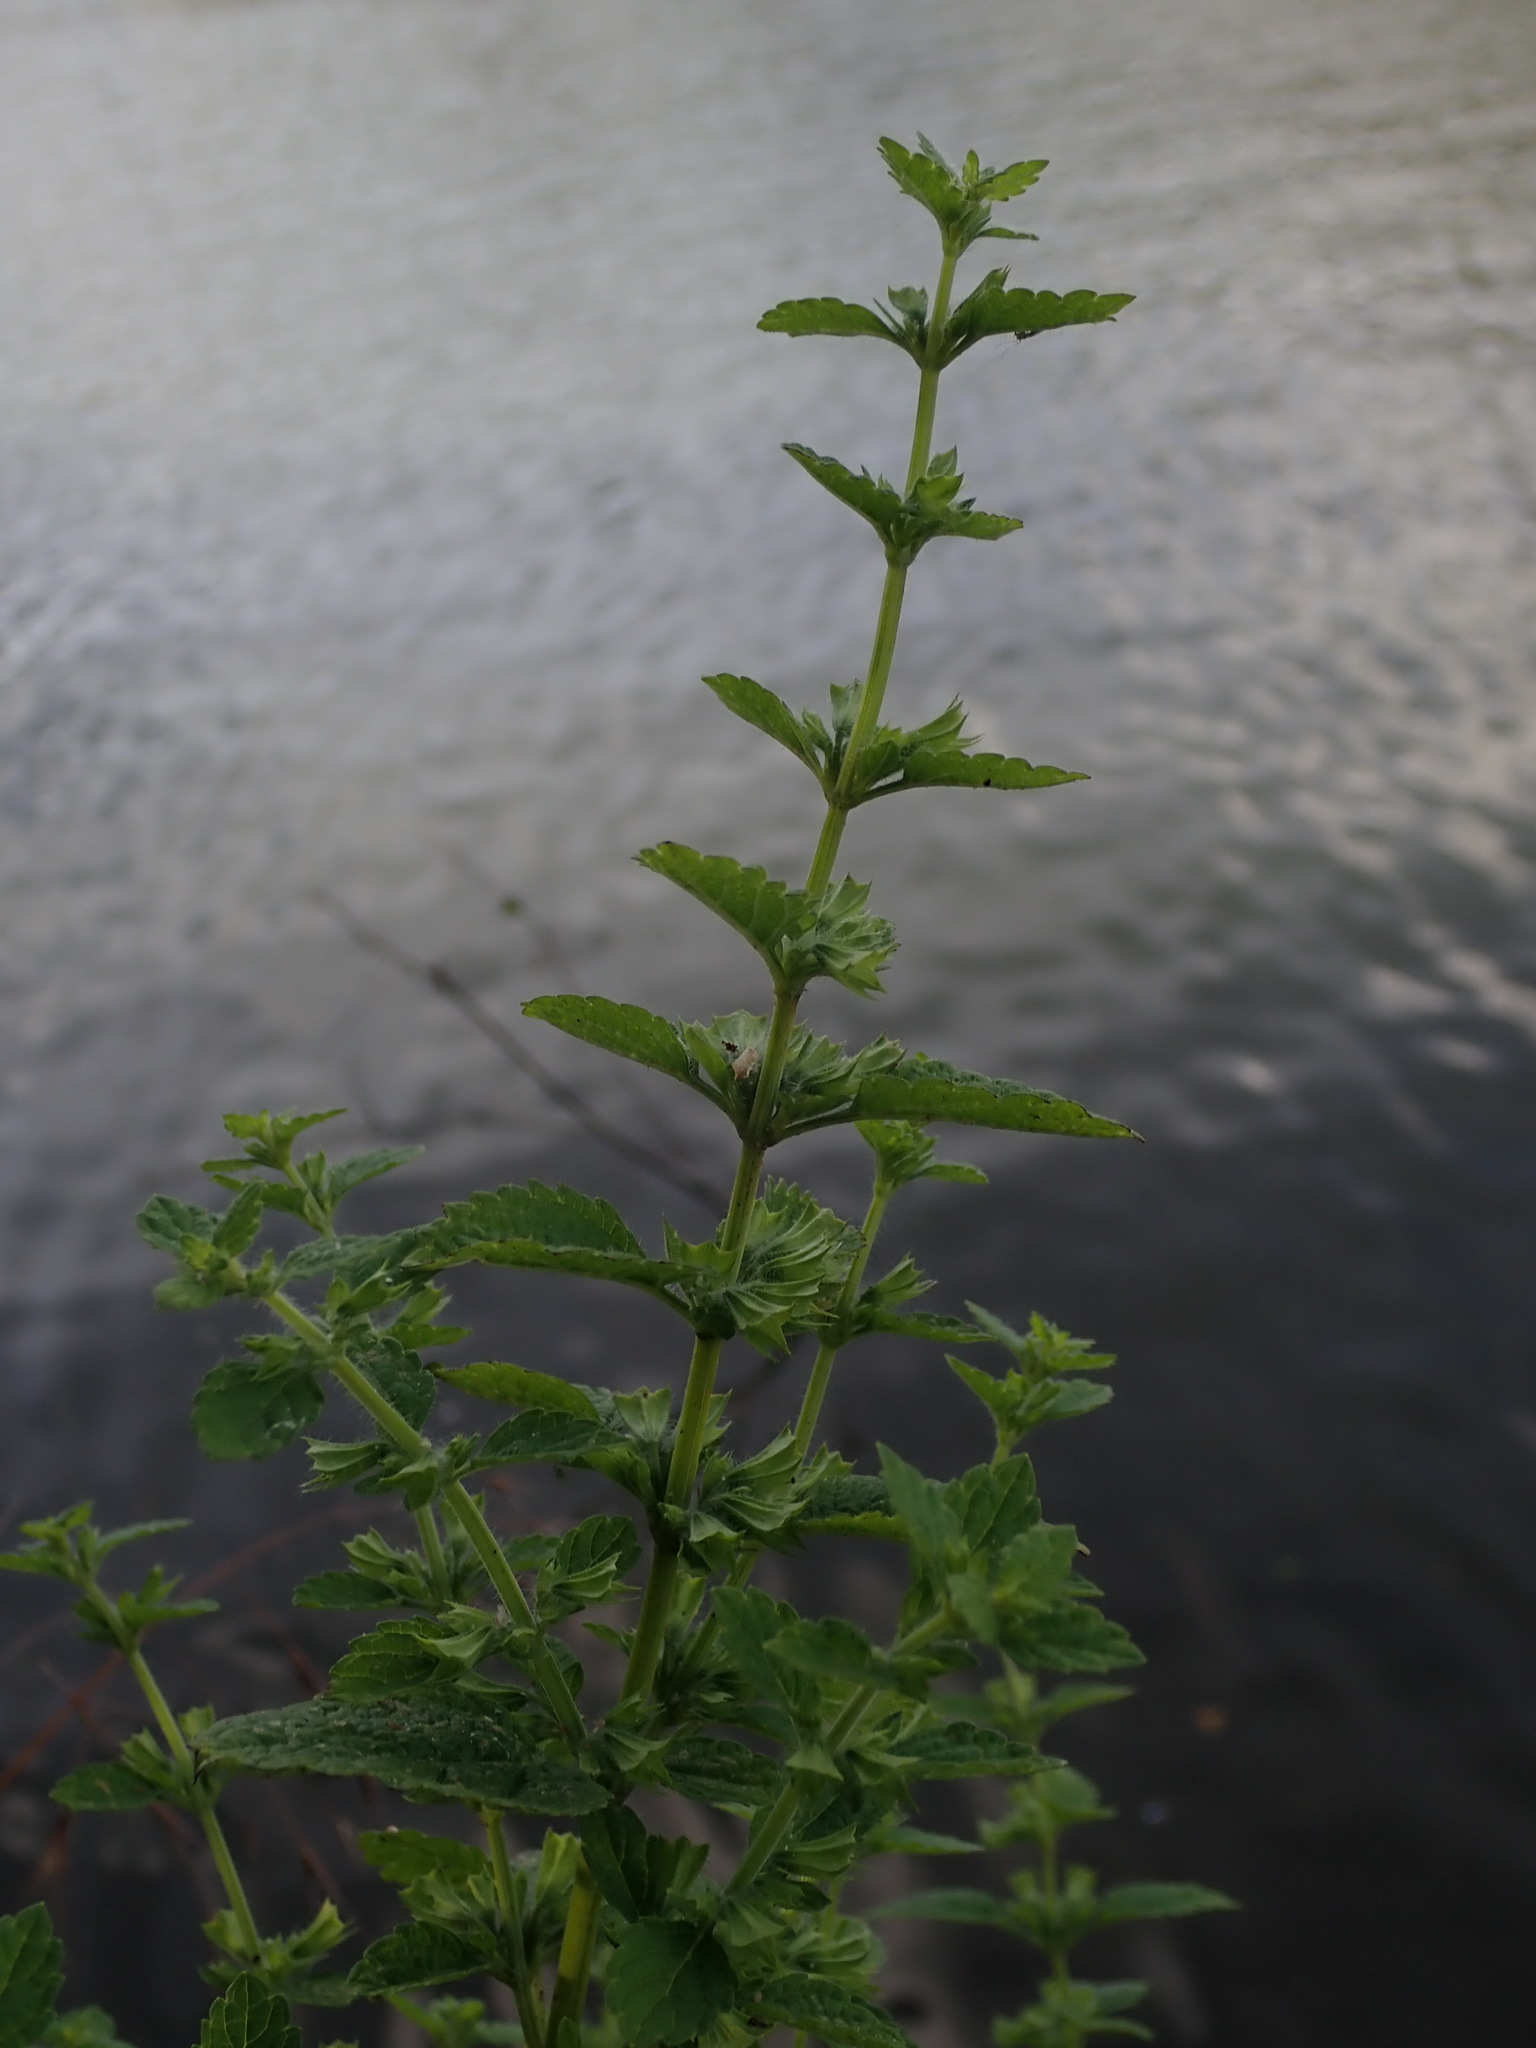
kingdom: Plantae
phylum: Tracheophyta
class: Magnoliopsida
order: Lamiales
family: Lamiaceae
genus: Melissa
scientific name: Melissa officinalis
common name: Balm
